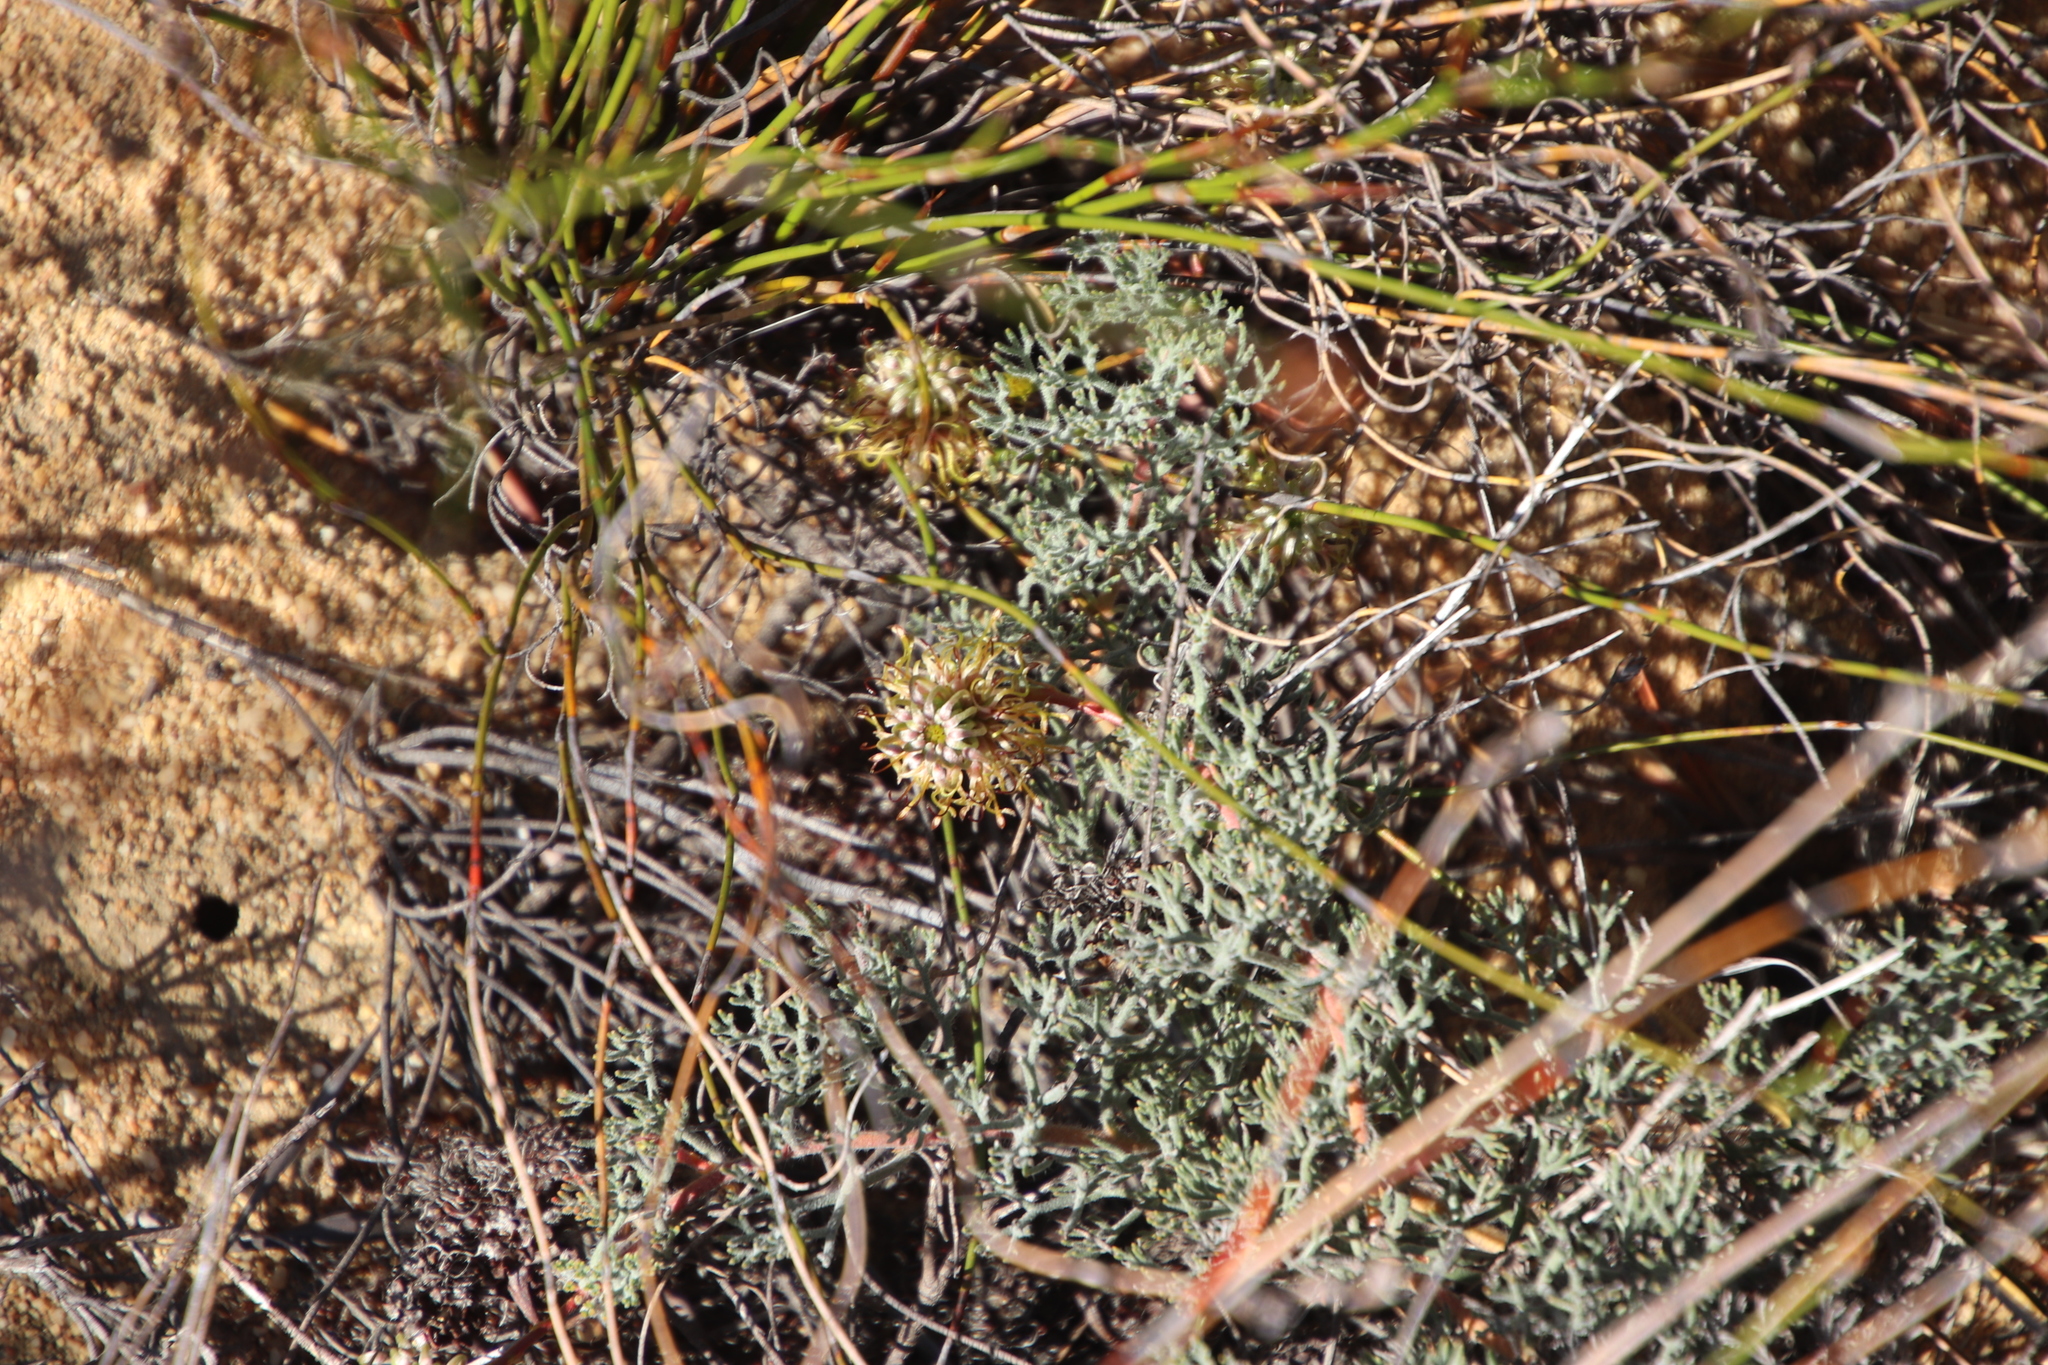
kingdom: Plantae
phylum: Tracheophyta
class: Magnoliopsida
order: Proteales
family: Proteaceae
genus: Serruria
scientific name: Serruria effusa
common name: Candelabra spiderhead
